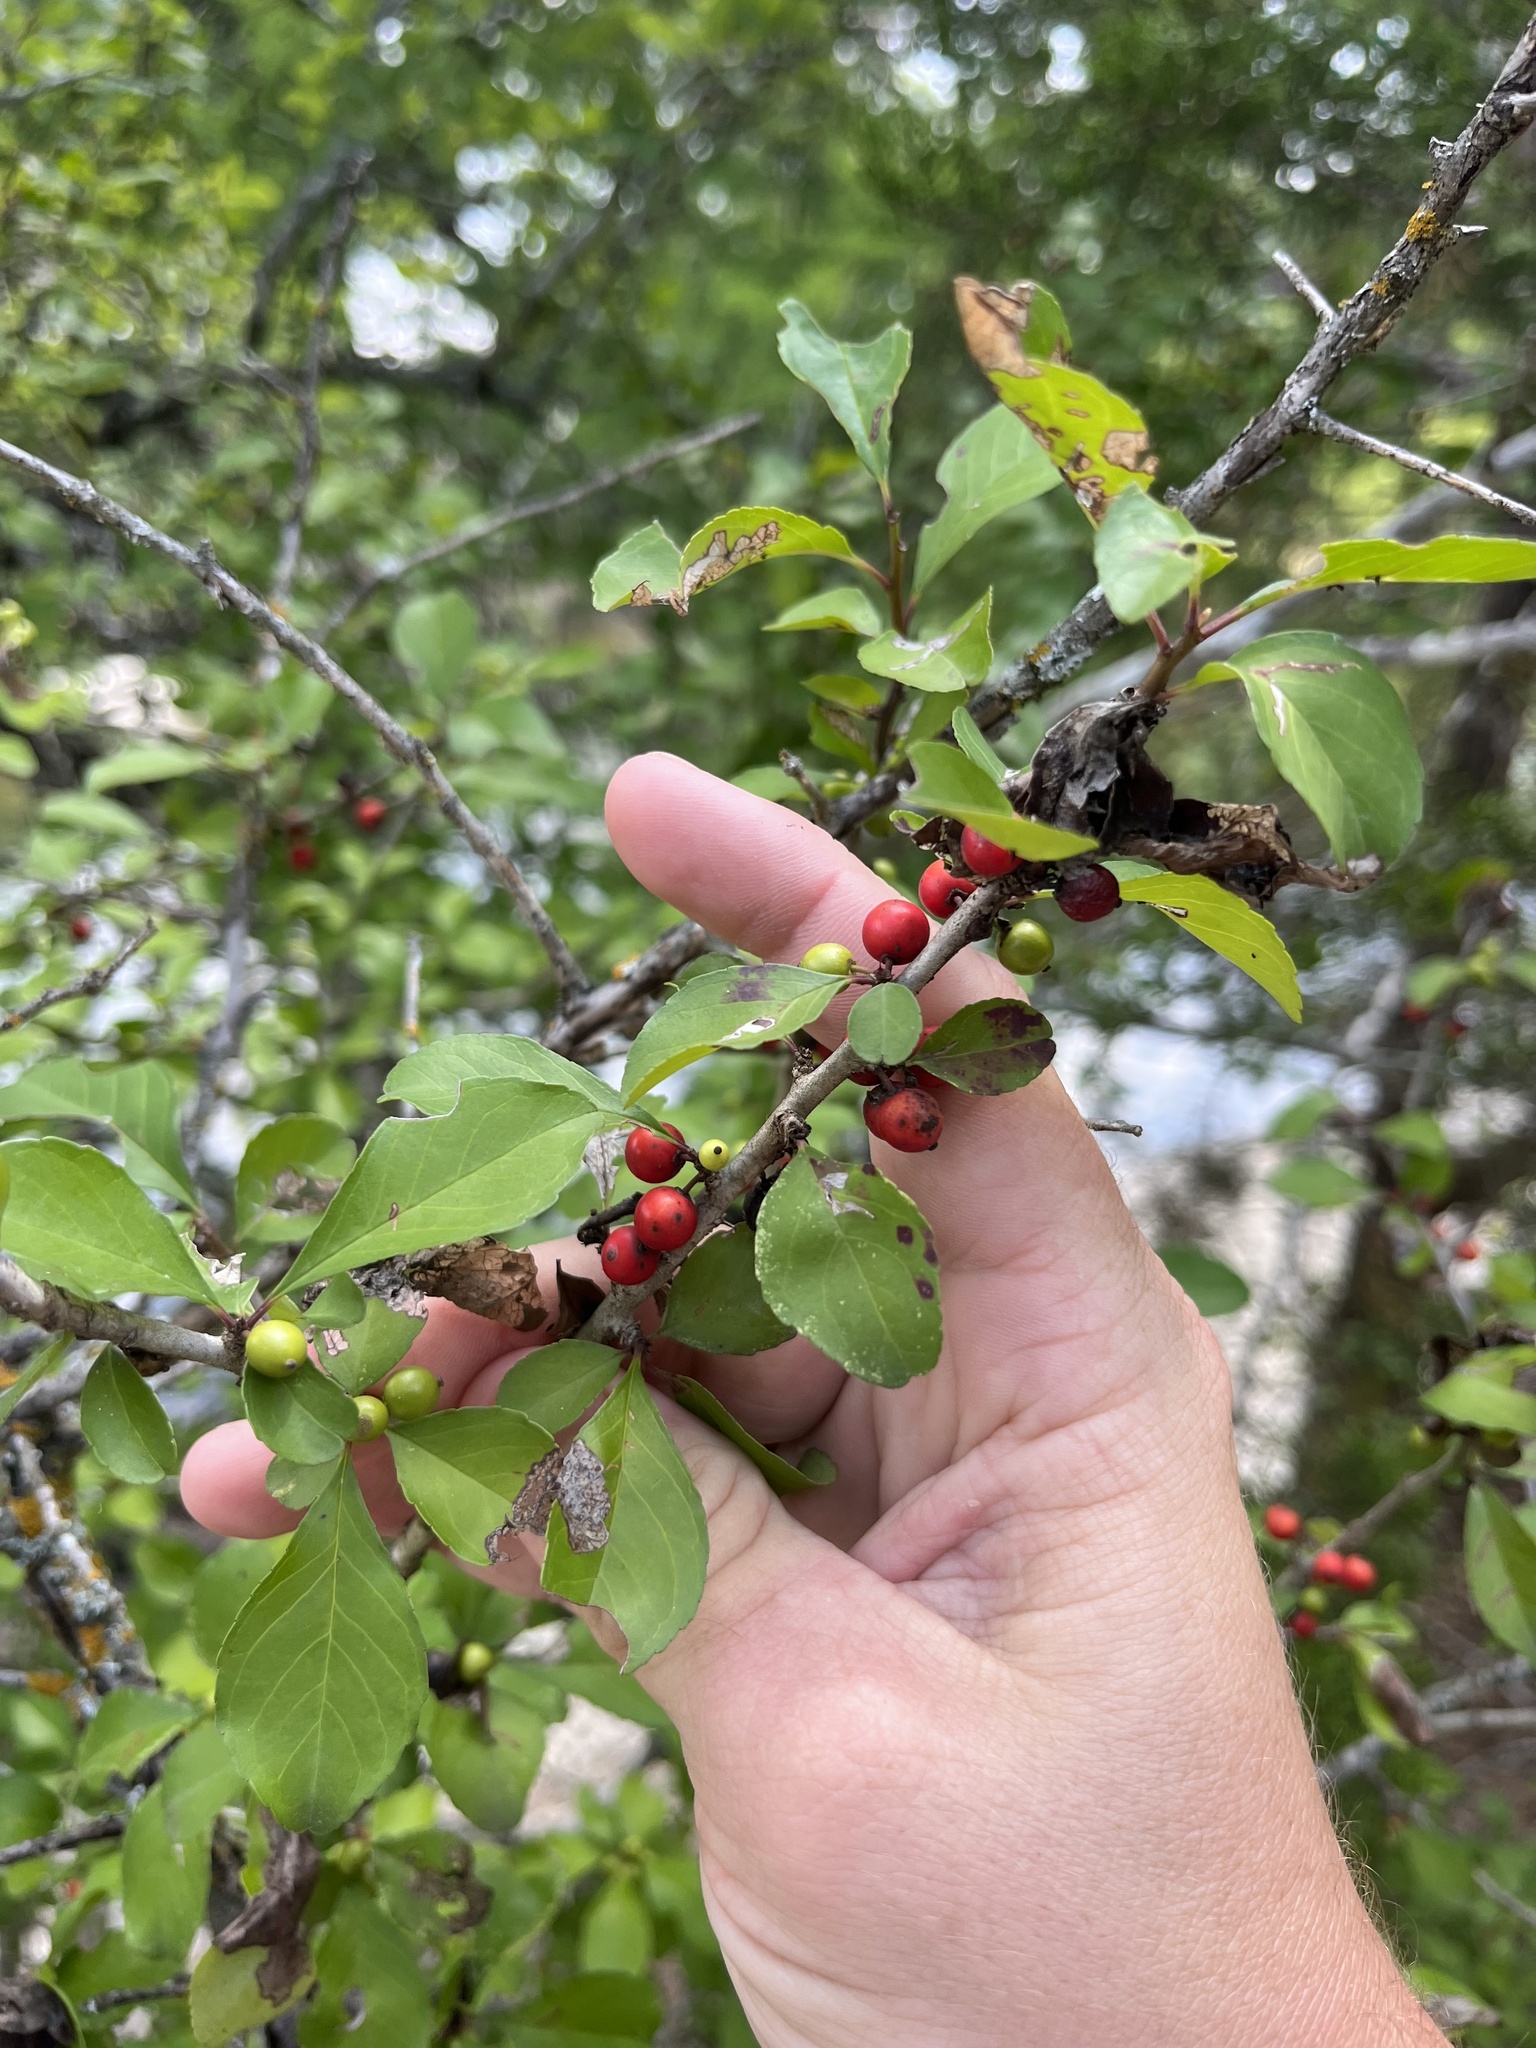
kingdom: Plantae
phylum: Tracheophyta
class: Magnoliopsida
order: Aquifoliales
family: Aquifoliaceae
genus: Ilex
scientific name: Ilex decidua
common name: Possum-haw
